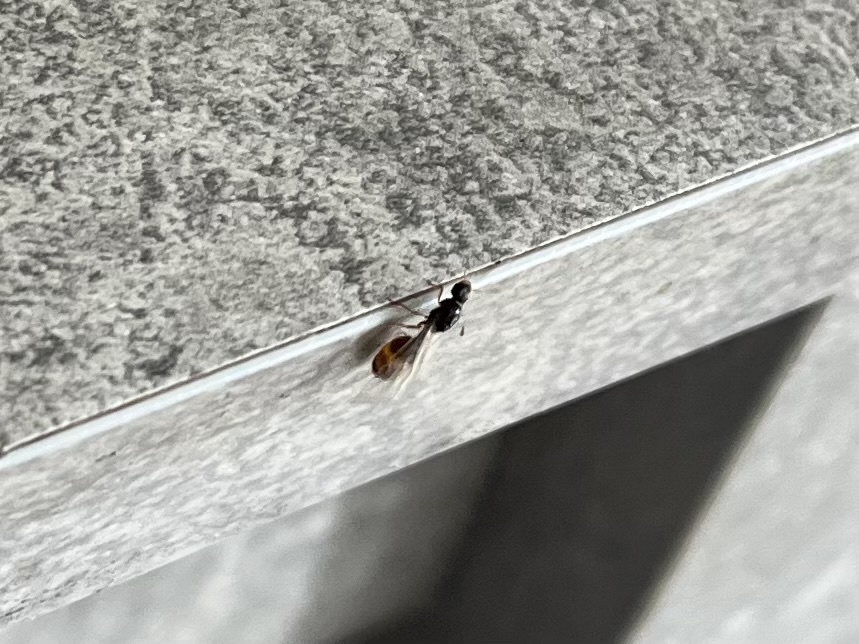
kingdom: Animalia
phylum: Arthropoda
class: Insecta
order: Hymenoptera
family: Formicidae
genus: Solenopsis
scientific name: Solenopsis fugax
